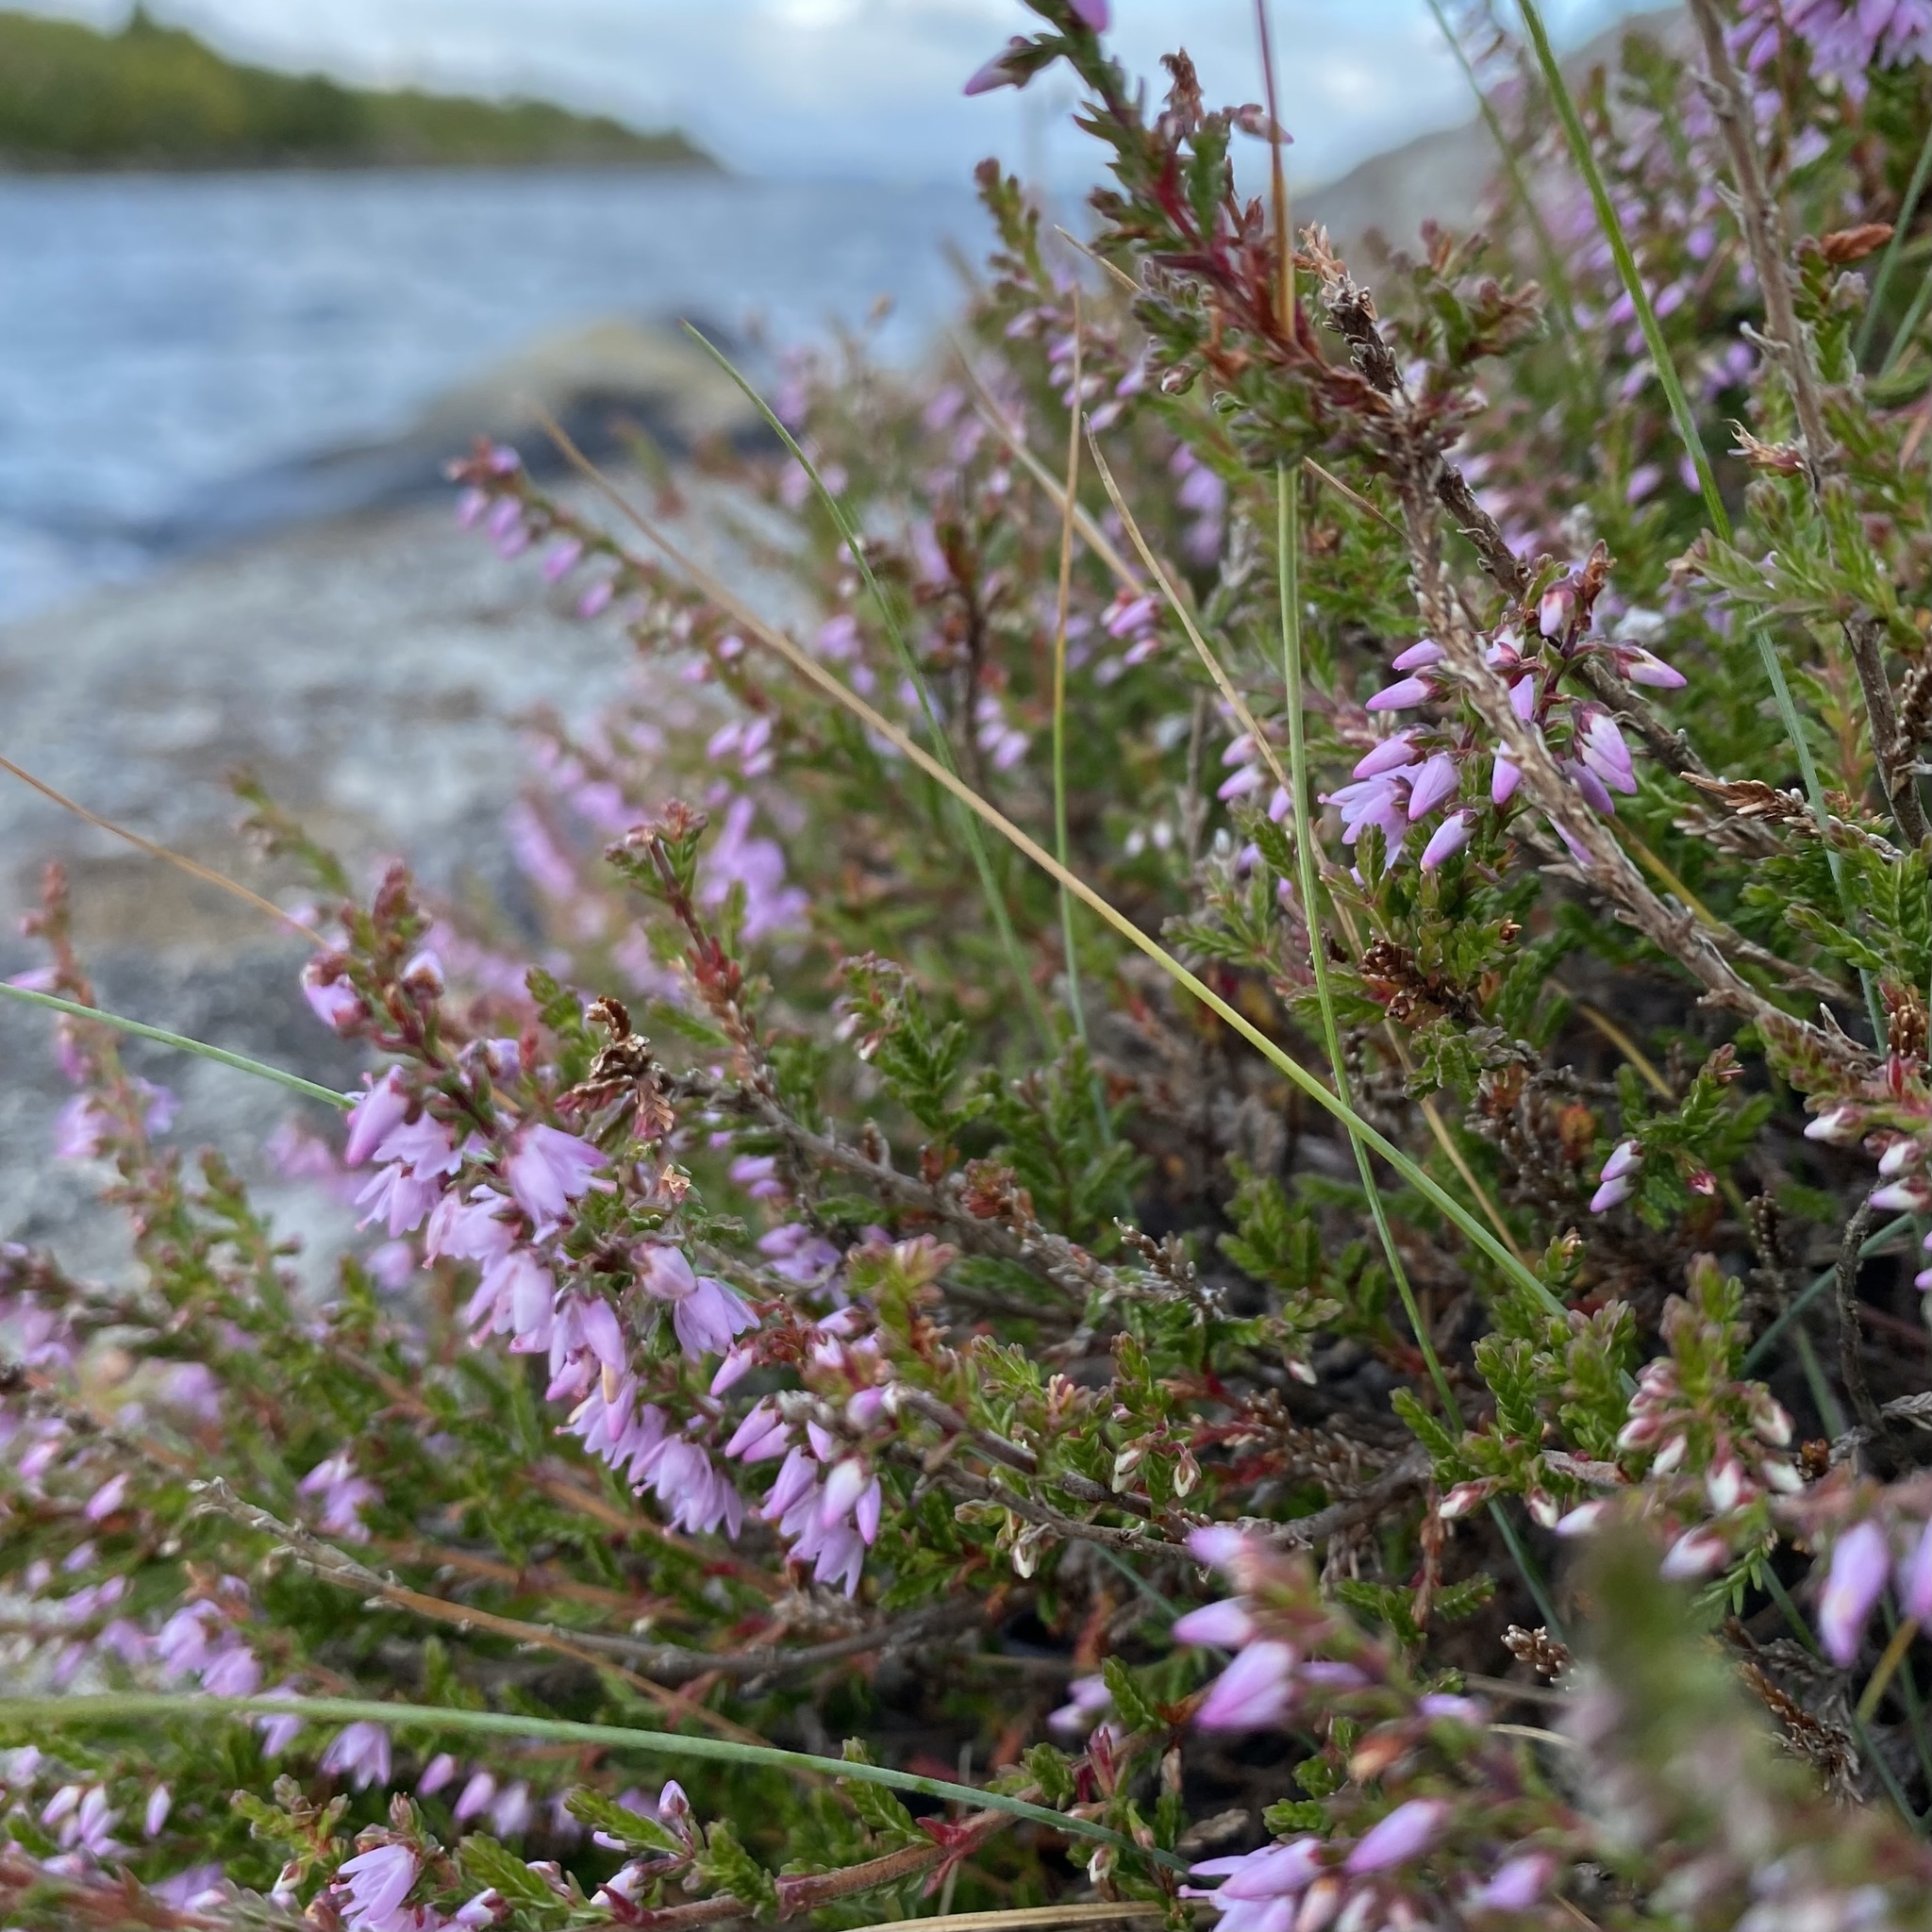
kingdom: Plantae
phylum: Tracheophyta
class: Magnoliopsida
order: Ericales
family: Ericaceae
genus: Calluna
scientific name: Calluna vulgaris
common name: Heather
